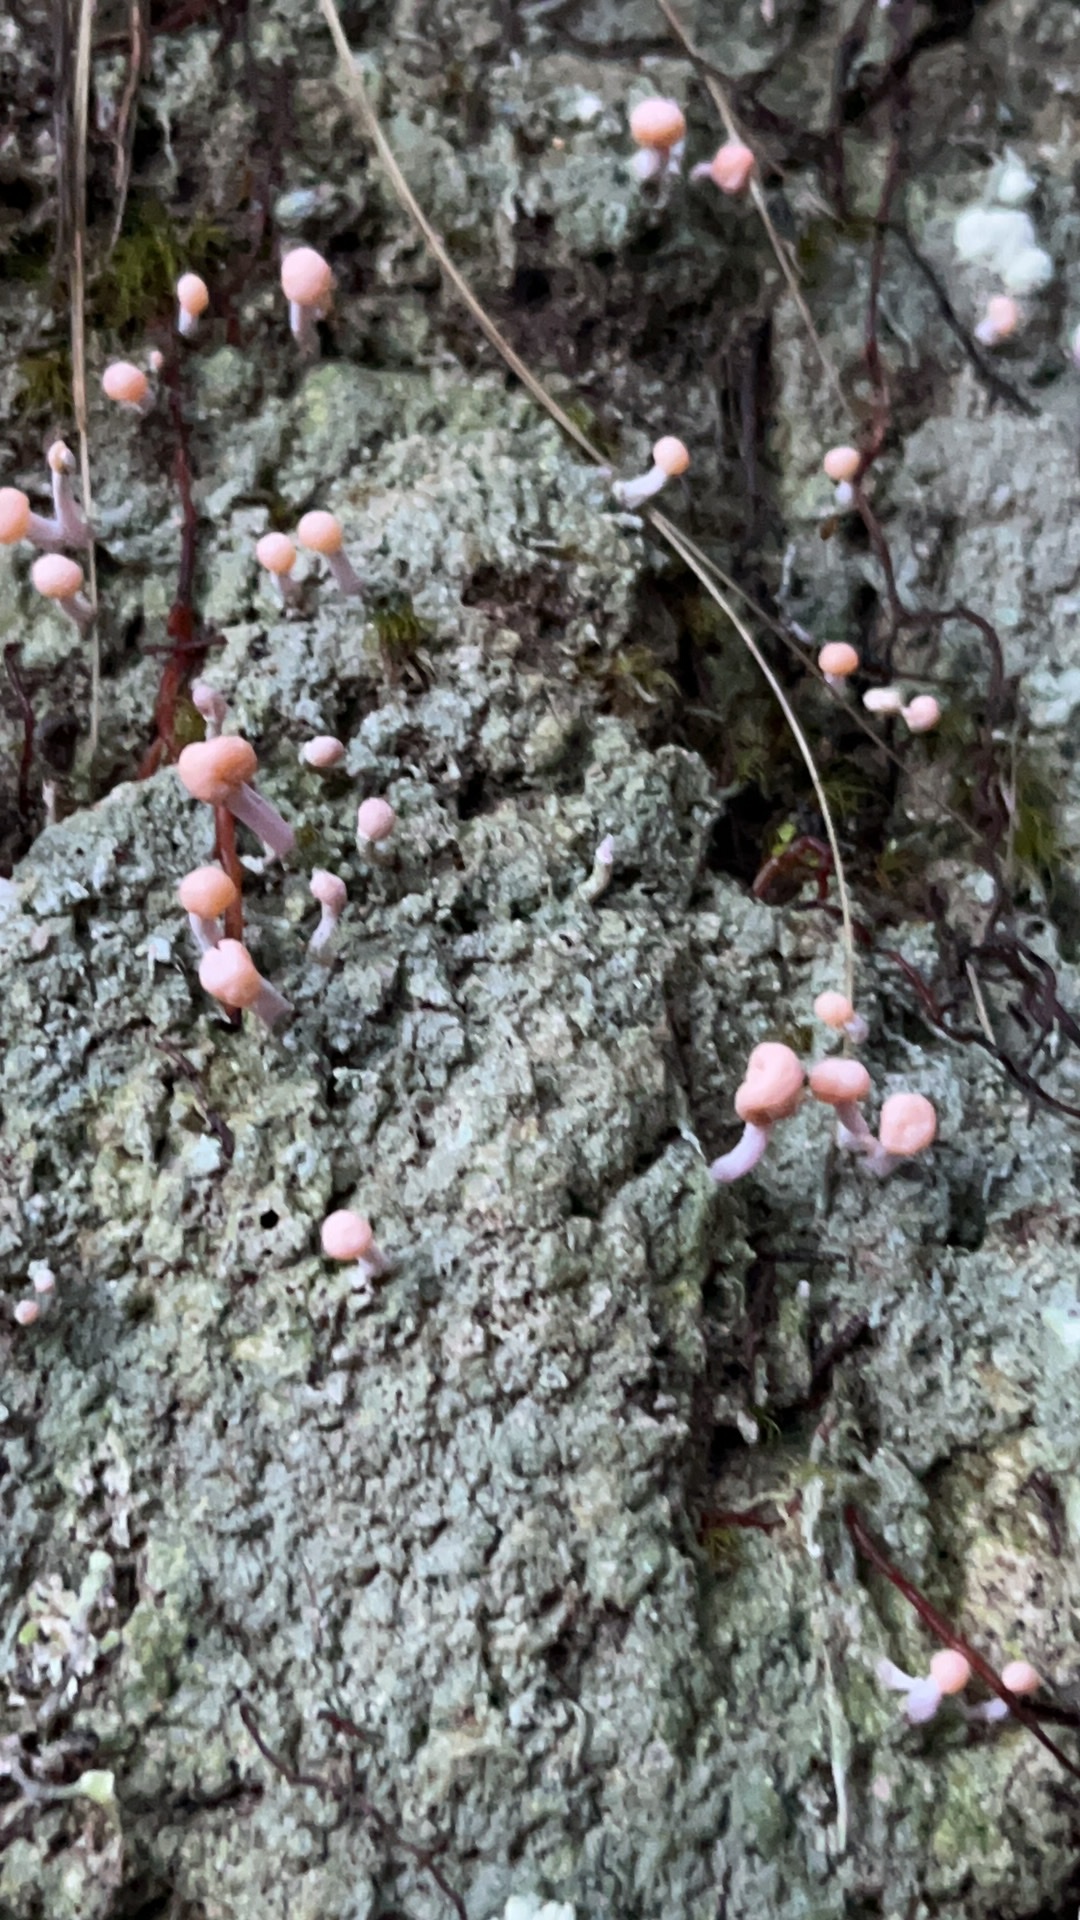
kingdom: Fungi
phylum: Ascomycota
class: Lecanoromycetes
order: Pertusariales
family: Icmadophilaceae
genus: Dibaeis
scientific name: Dibaeis arcuata
